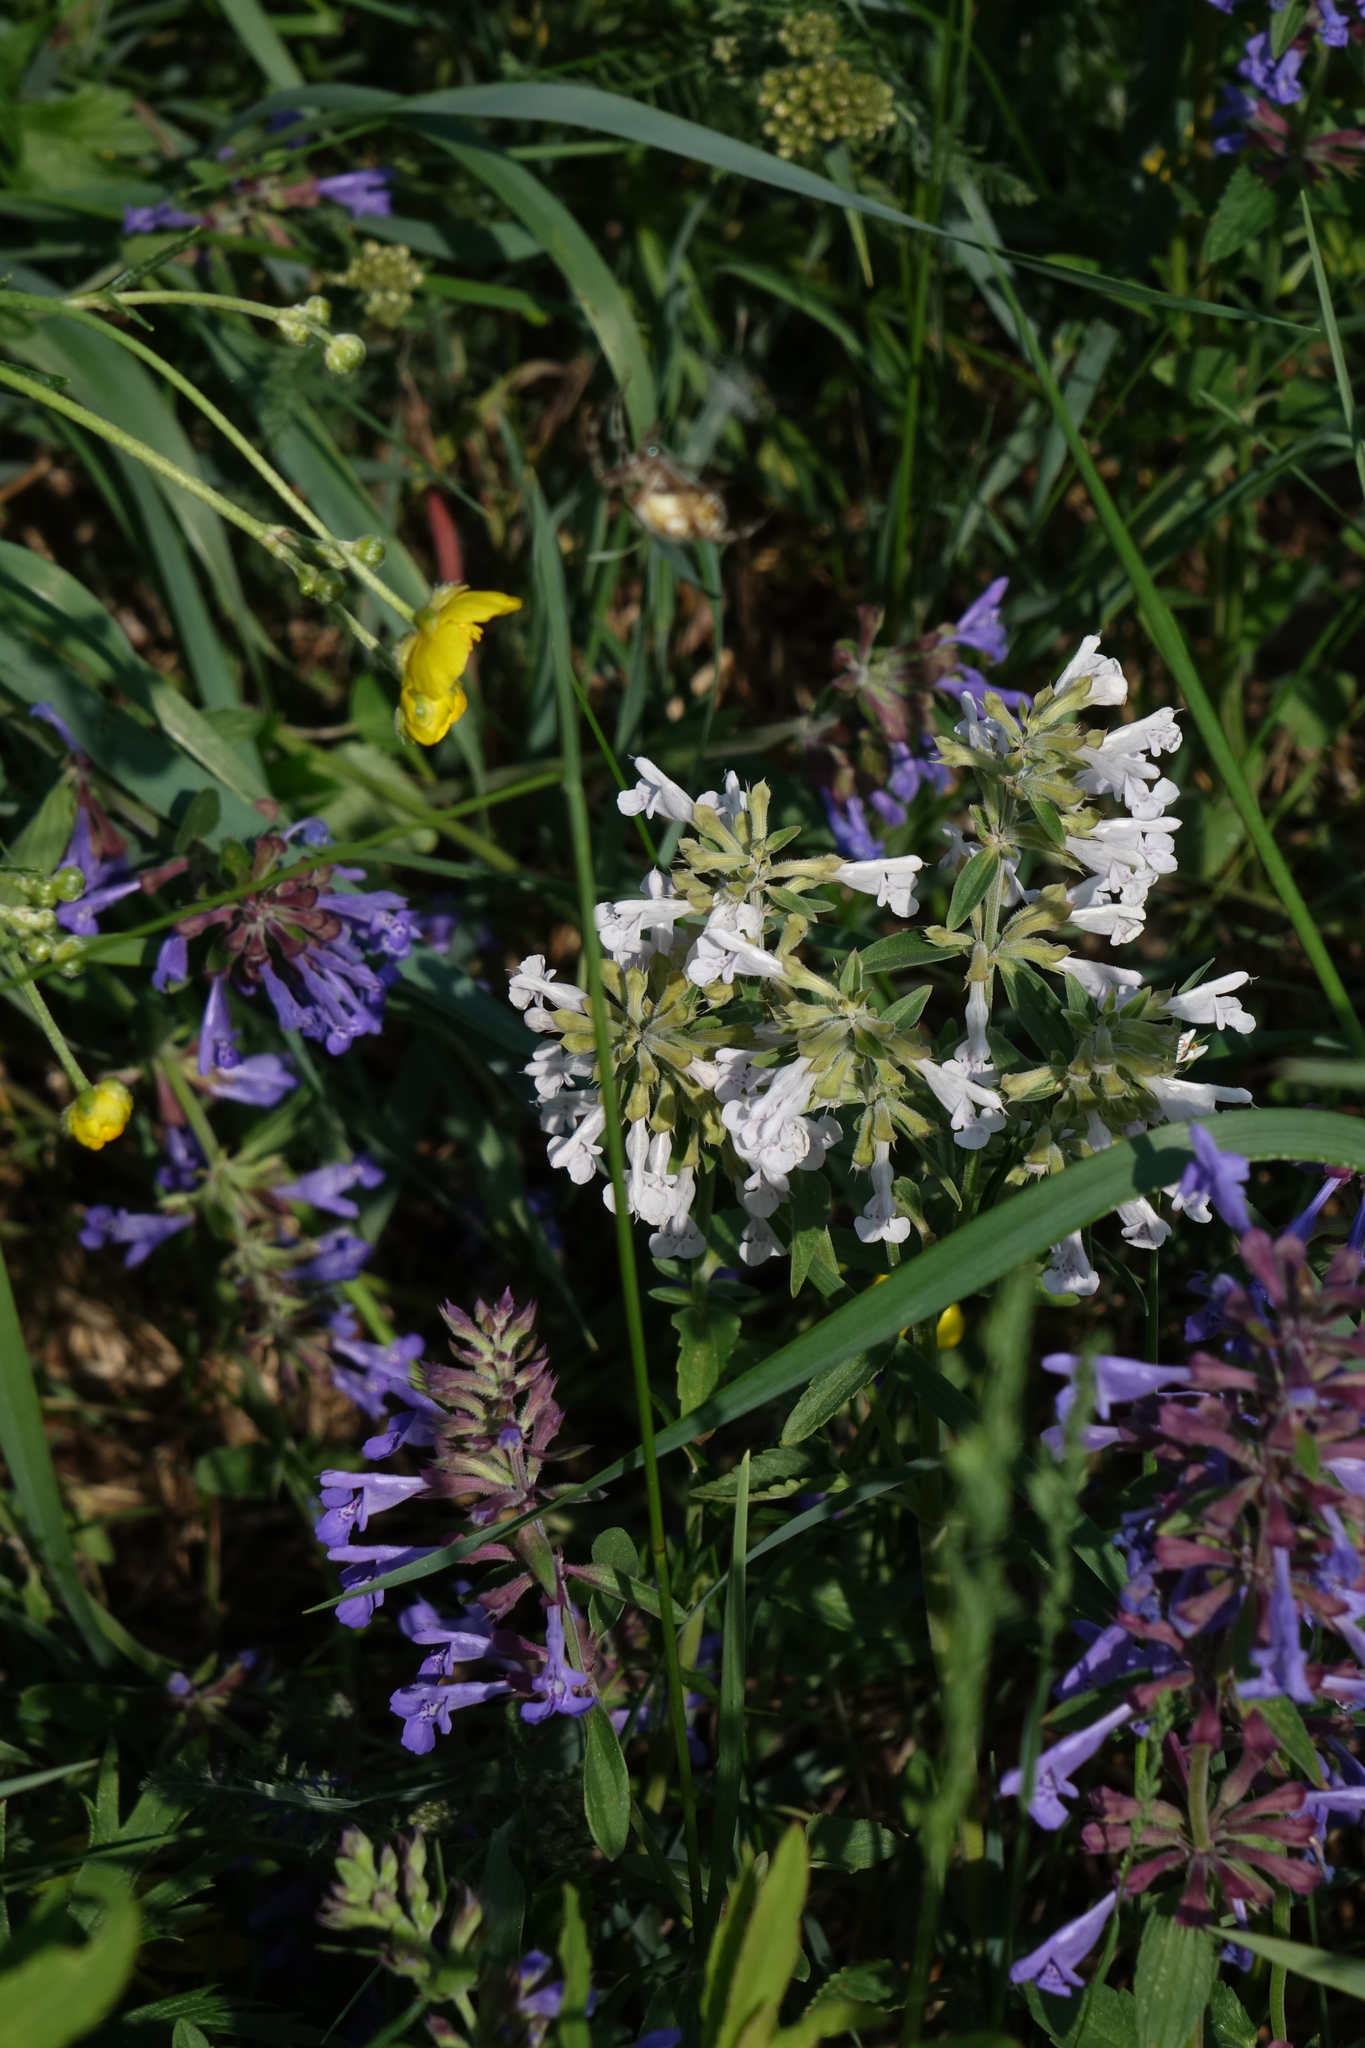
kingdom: Plantae
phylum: Tracheophyta
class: Magnoliopsida
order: Lamiales
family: Lamiaceae
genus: Dracocephalum
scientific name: Dracocephalum nutans
